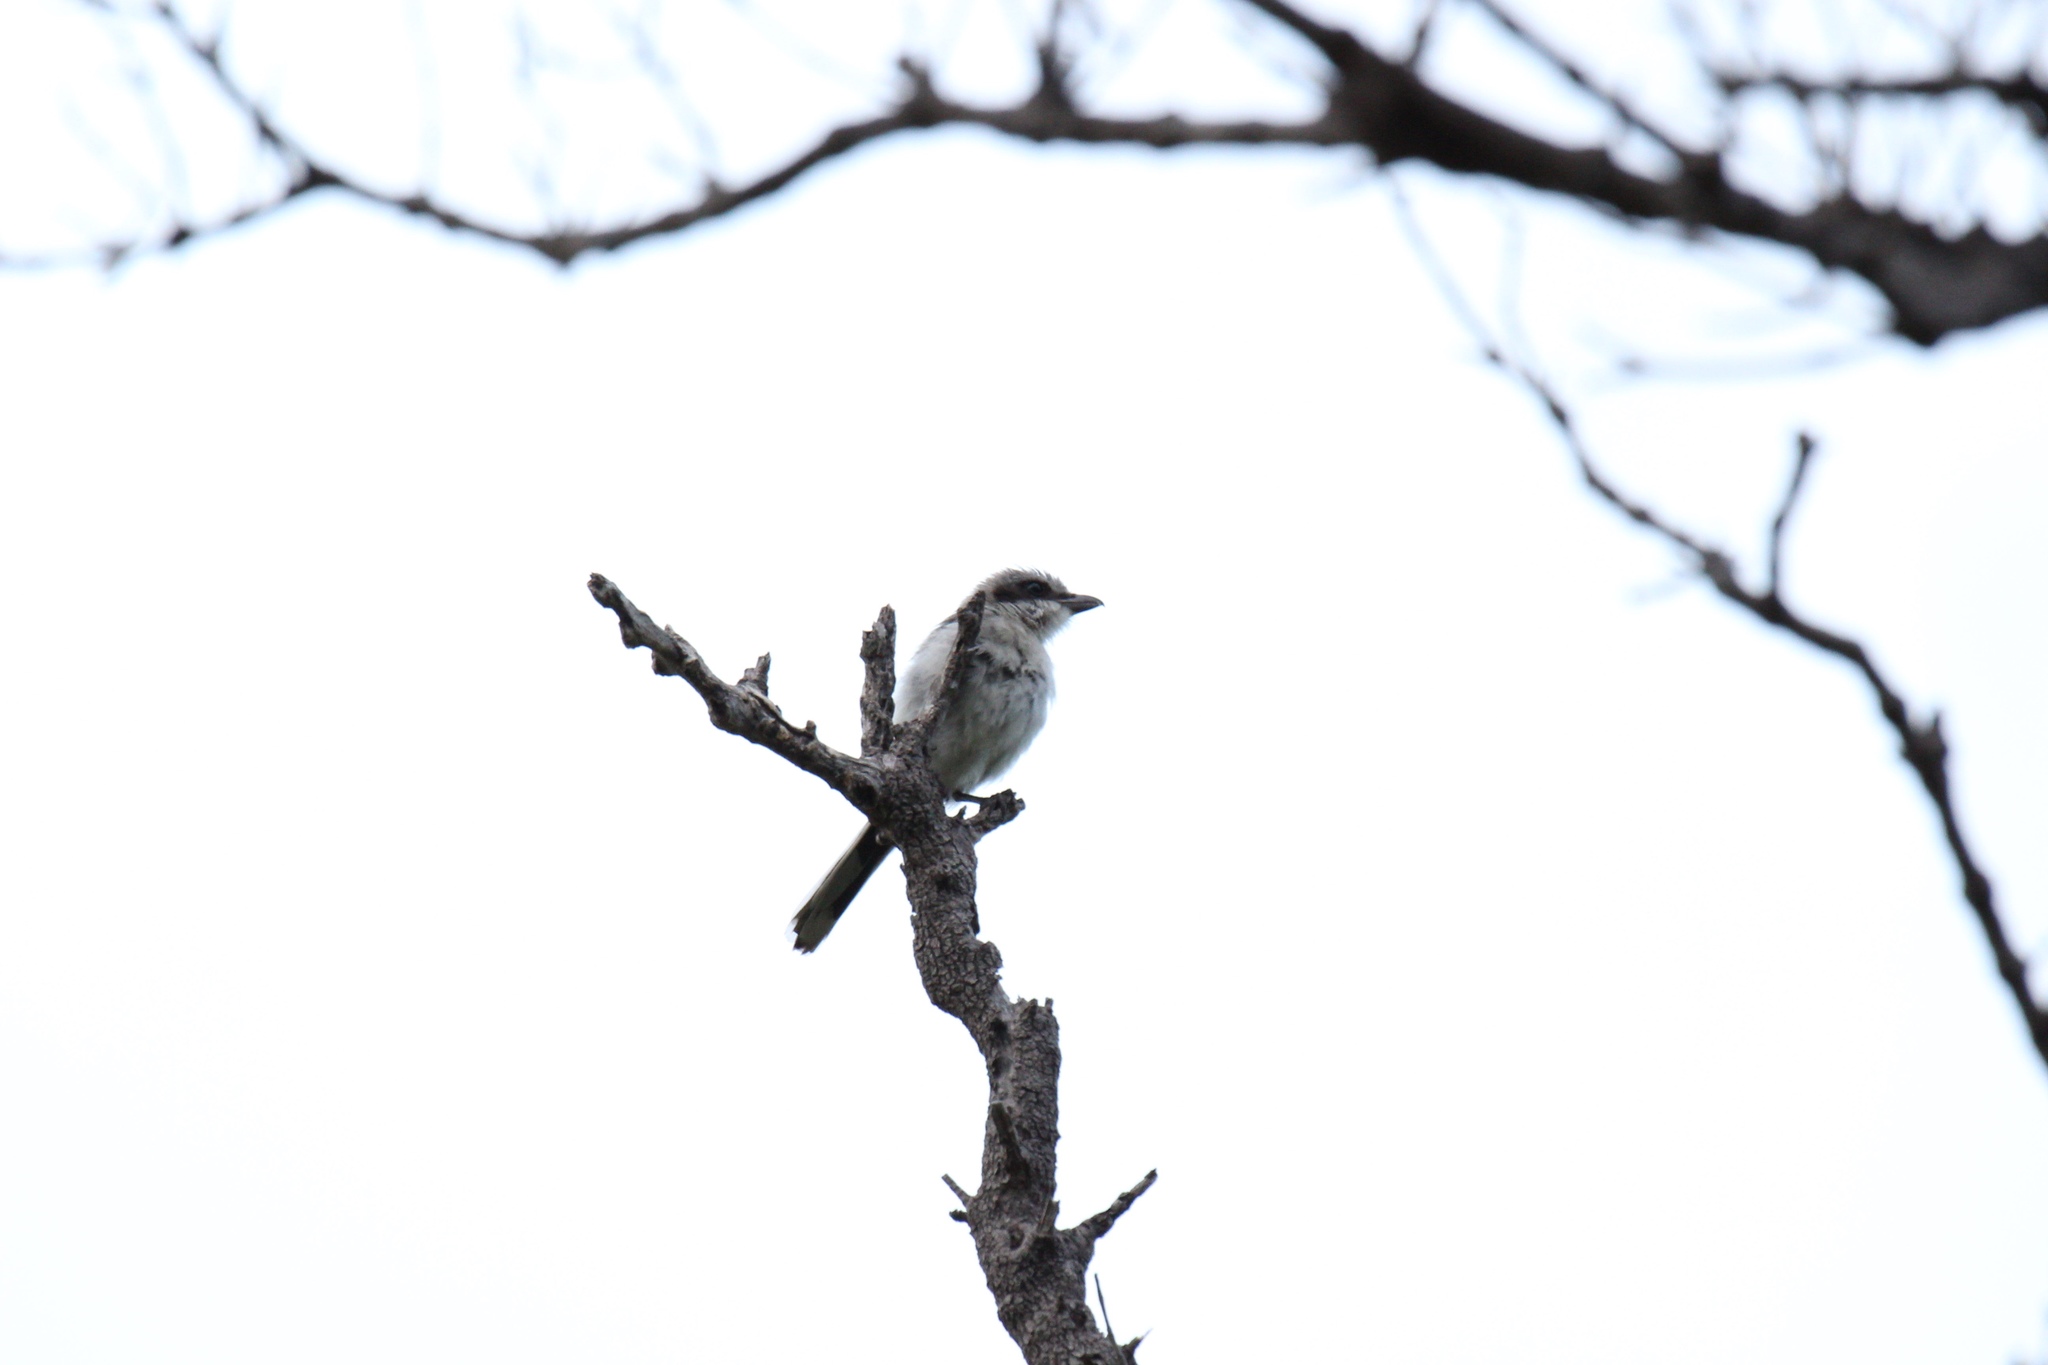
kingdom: Animalia
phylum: Chordata
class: Aves
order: Passeriformes
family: Laniidae
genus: Lanius
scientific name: Lanius ludovicianus
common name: Loggerhead shrike
